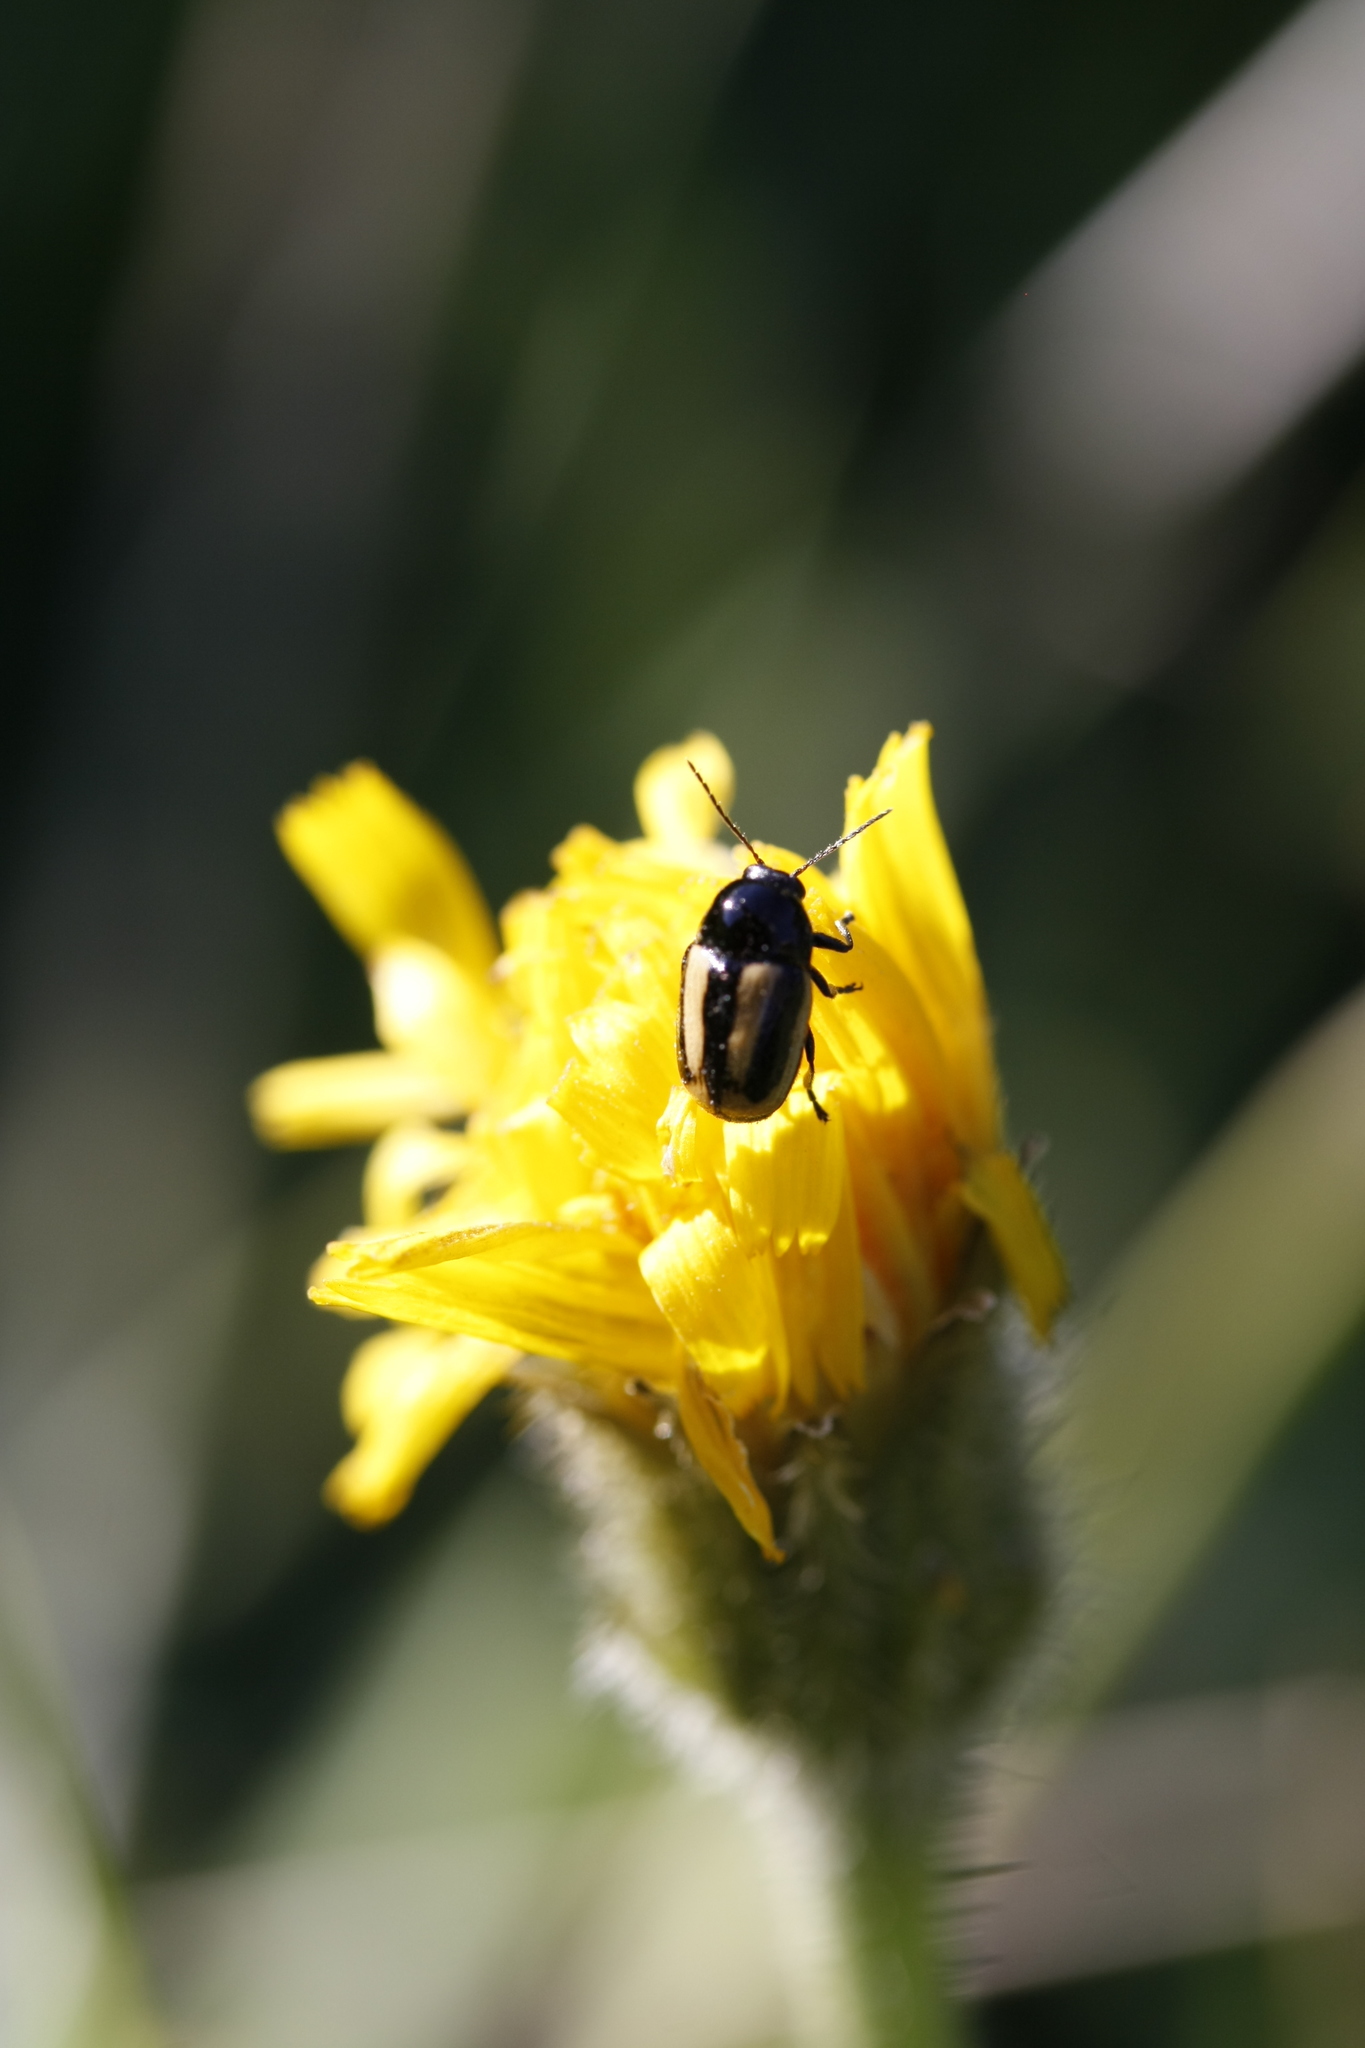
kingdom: Animalia
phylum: Arthropoda
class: Insecta
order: Coleoptera
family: Chrysomelidae
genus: Acalymma
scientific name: Acalymma vittatum
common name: Striped cucumber beetle
